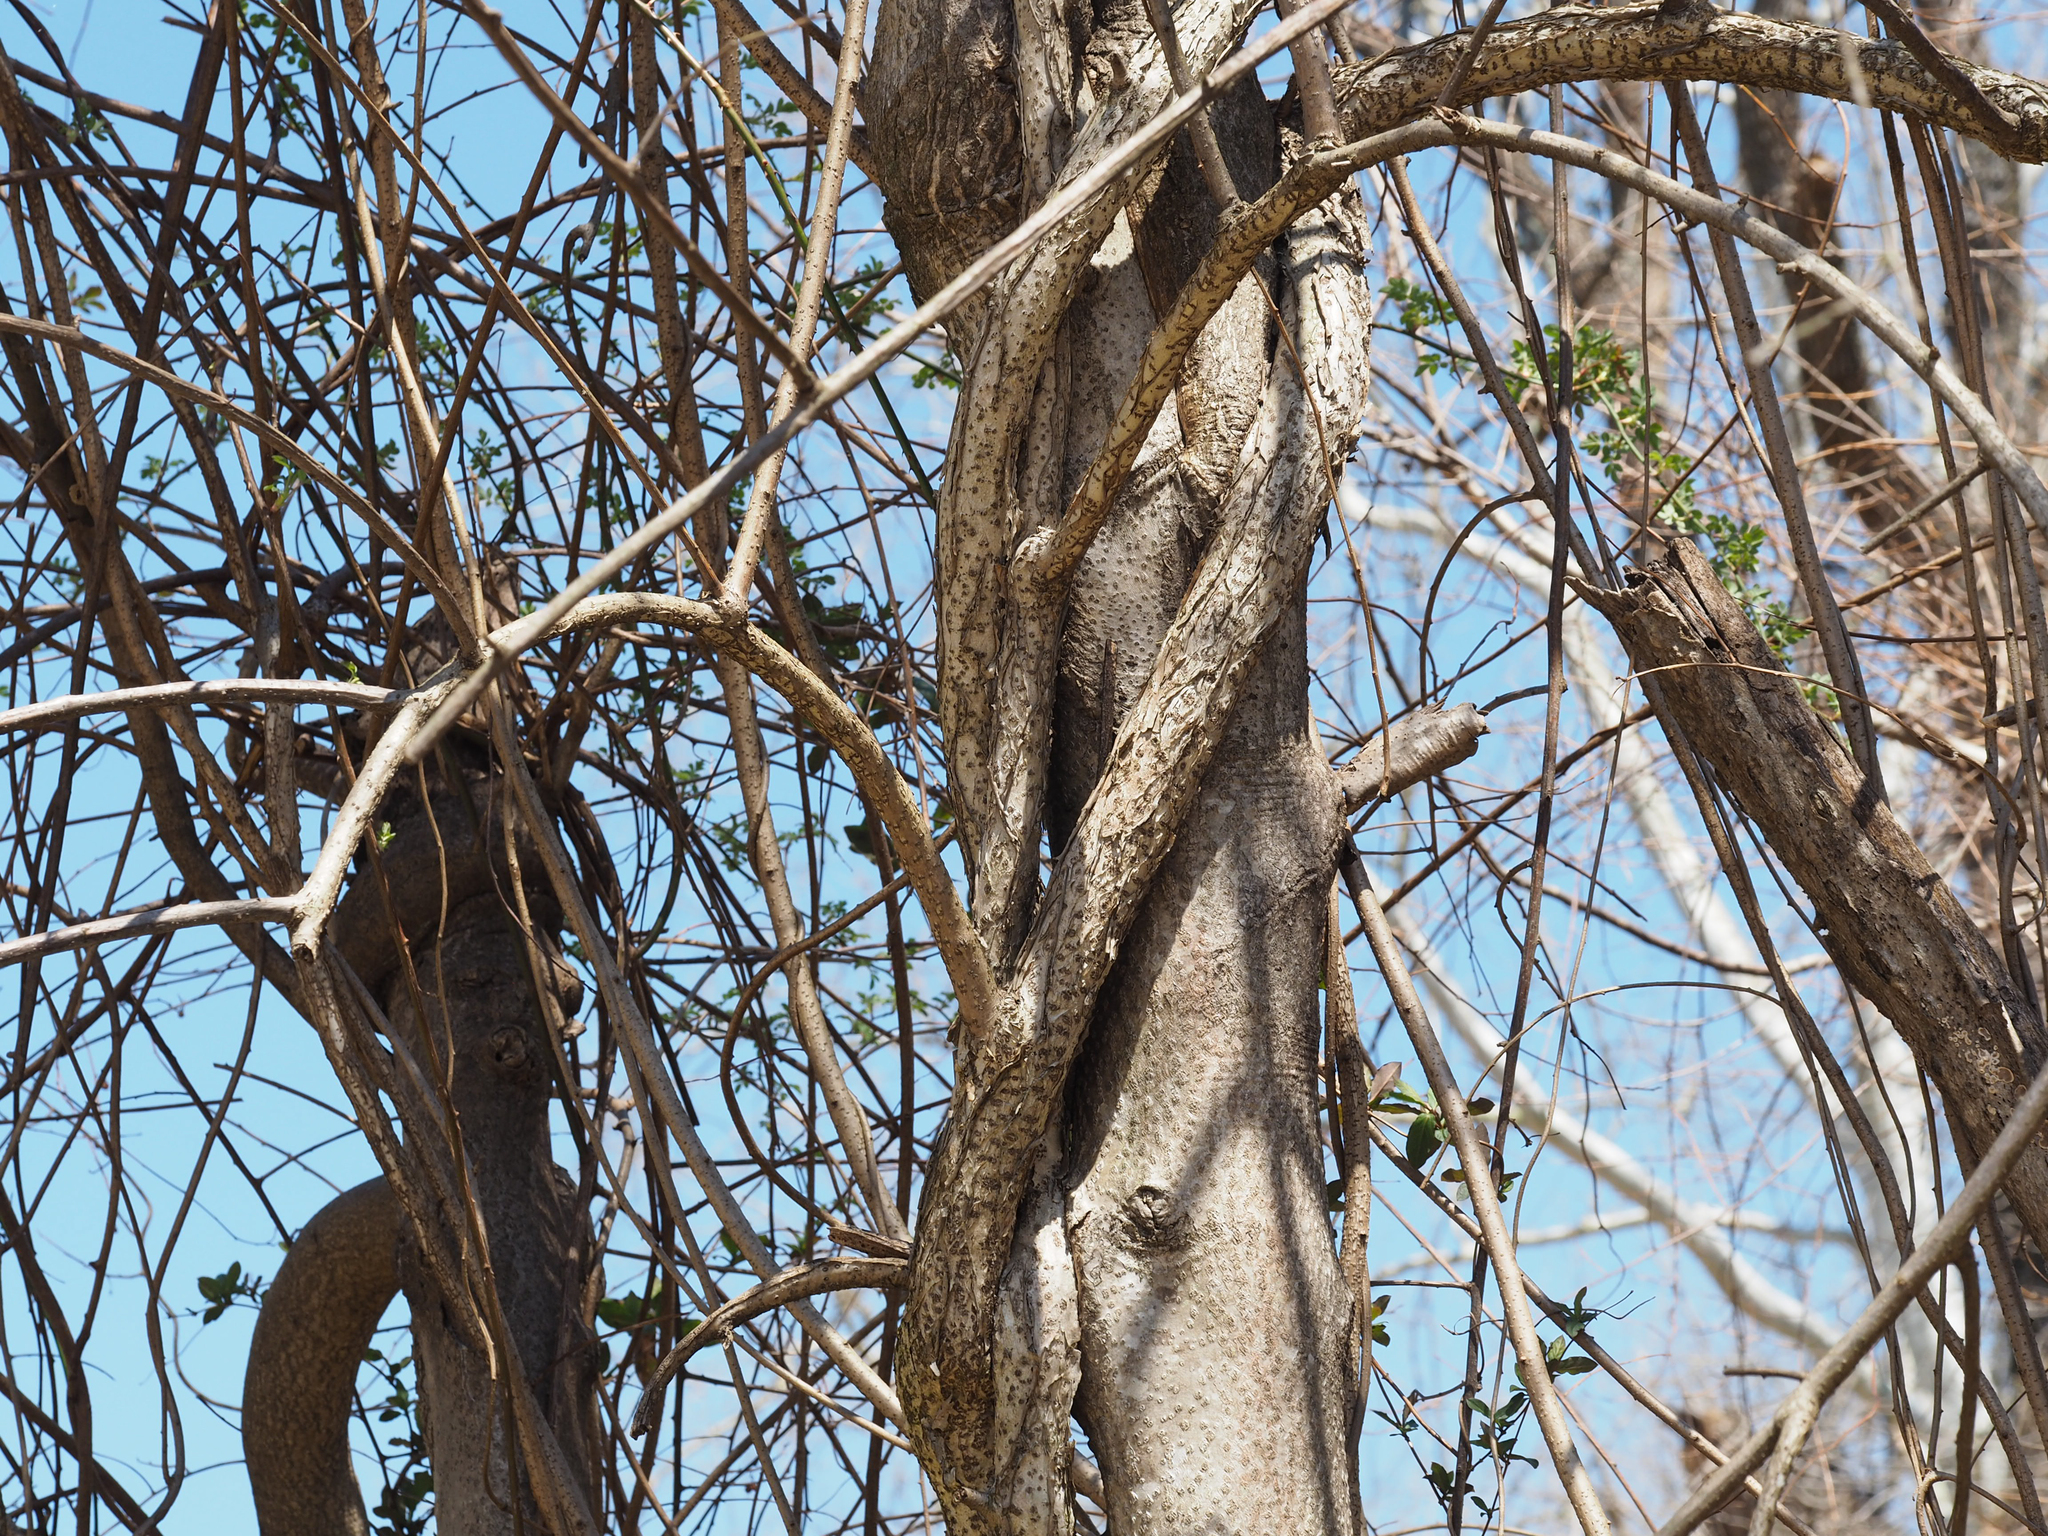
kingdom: Plantae
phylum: Tracheophyta
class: Magnoliopsida
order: Celastrales
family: Celastraceae
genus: Celastrus
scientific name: Celastrus orbiculatus
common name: Oriental bittersweet
